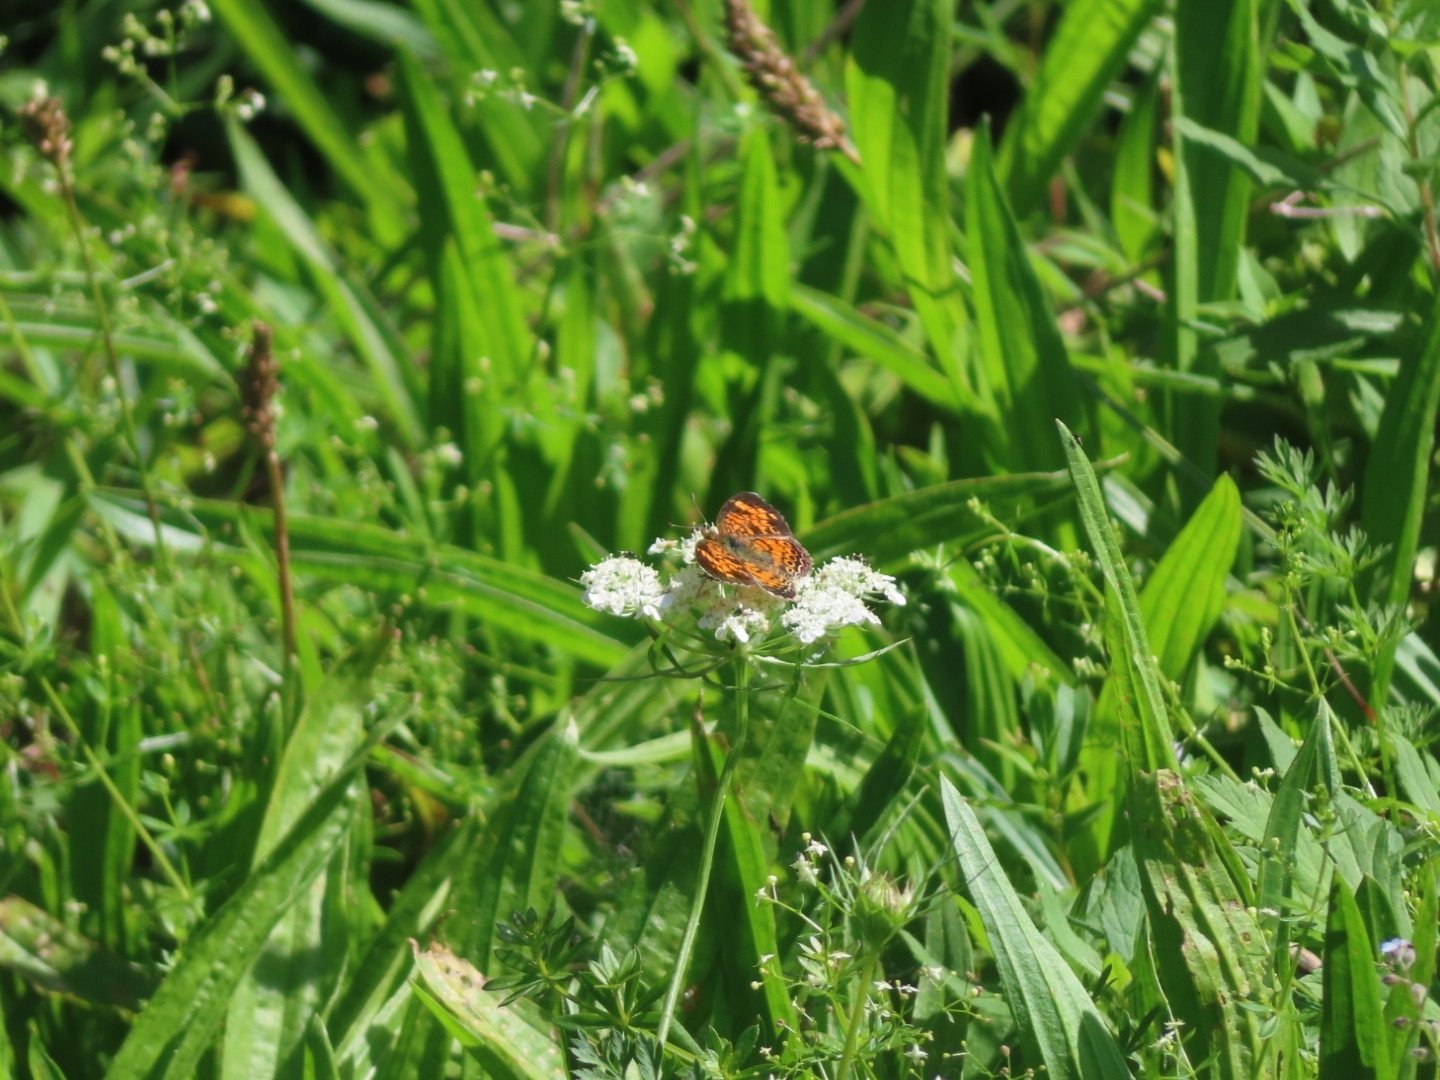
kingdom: Animalia
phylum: Arthropoda
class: Insecta
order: Lepidoptera
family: Nymphalidae
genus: Phyciodes
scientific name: Phyciodes tharos
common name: Pearl crescent
